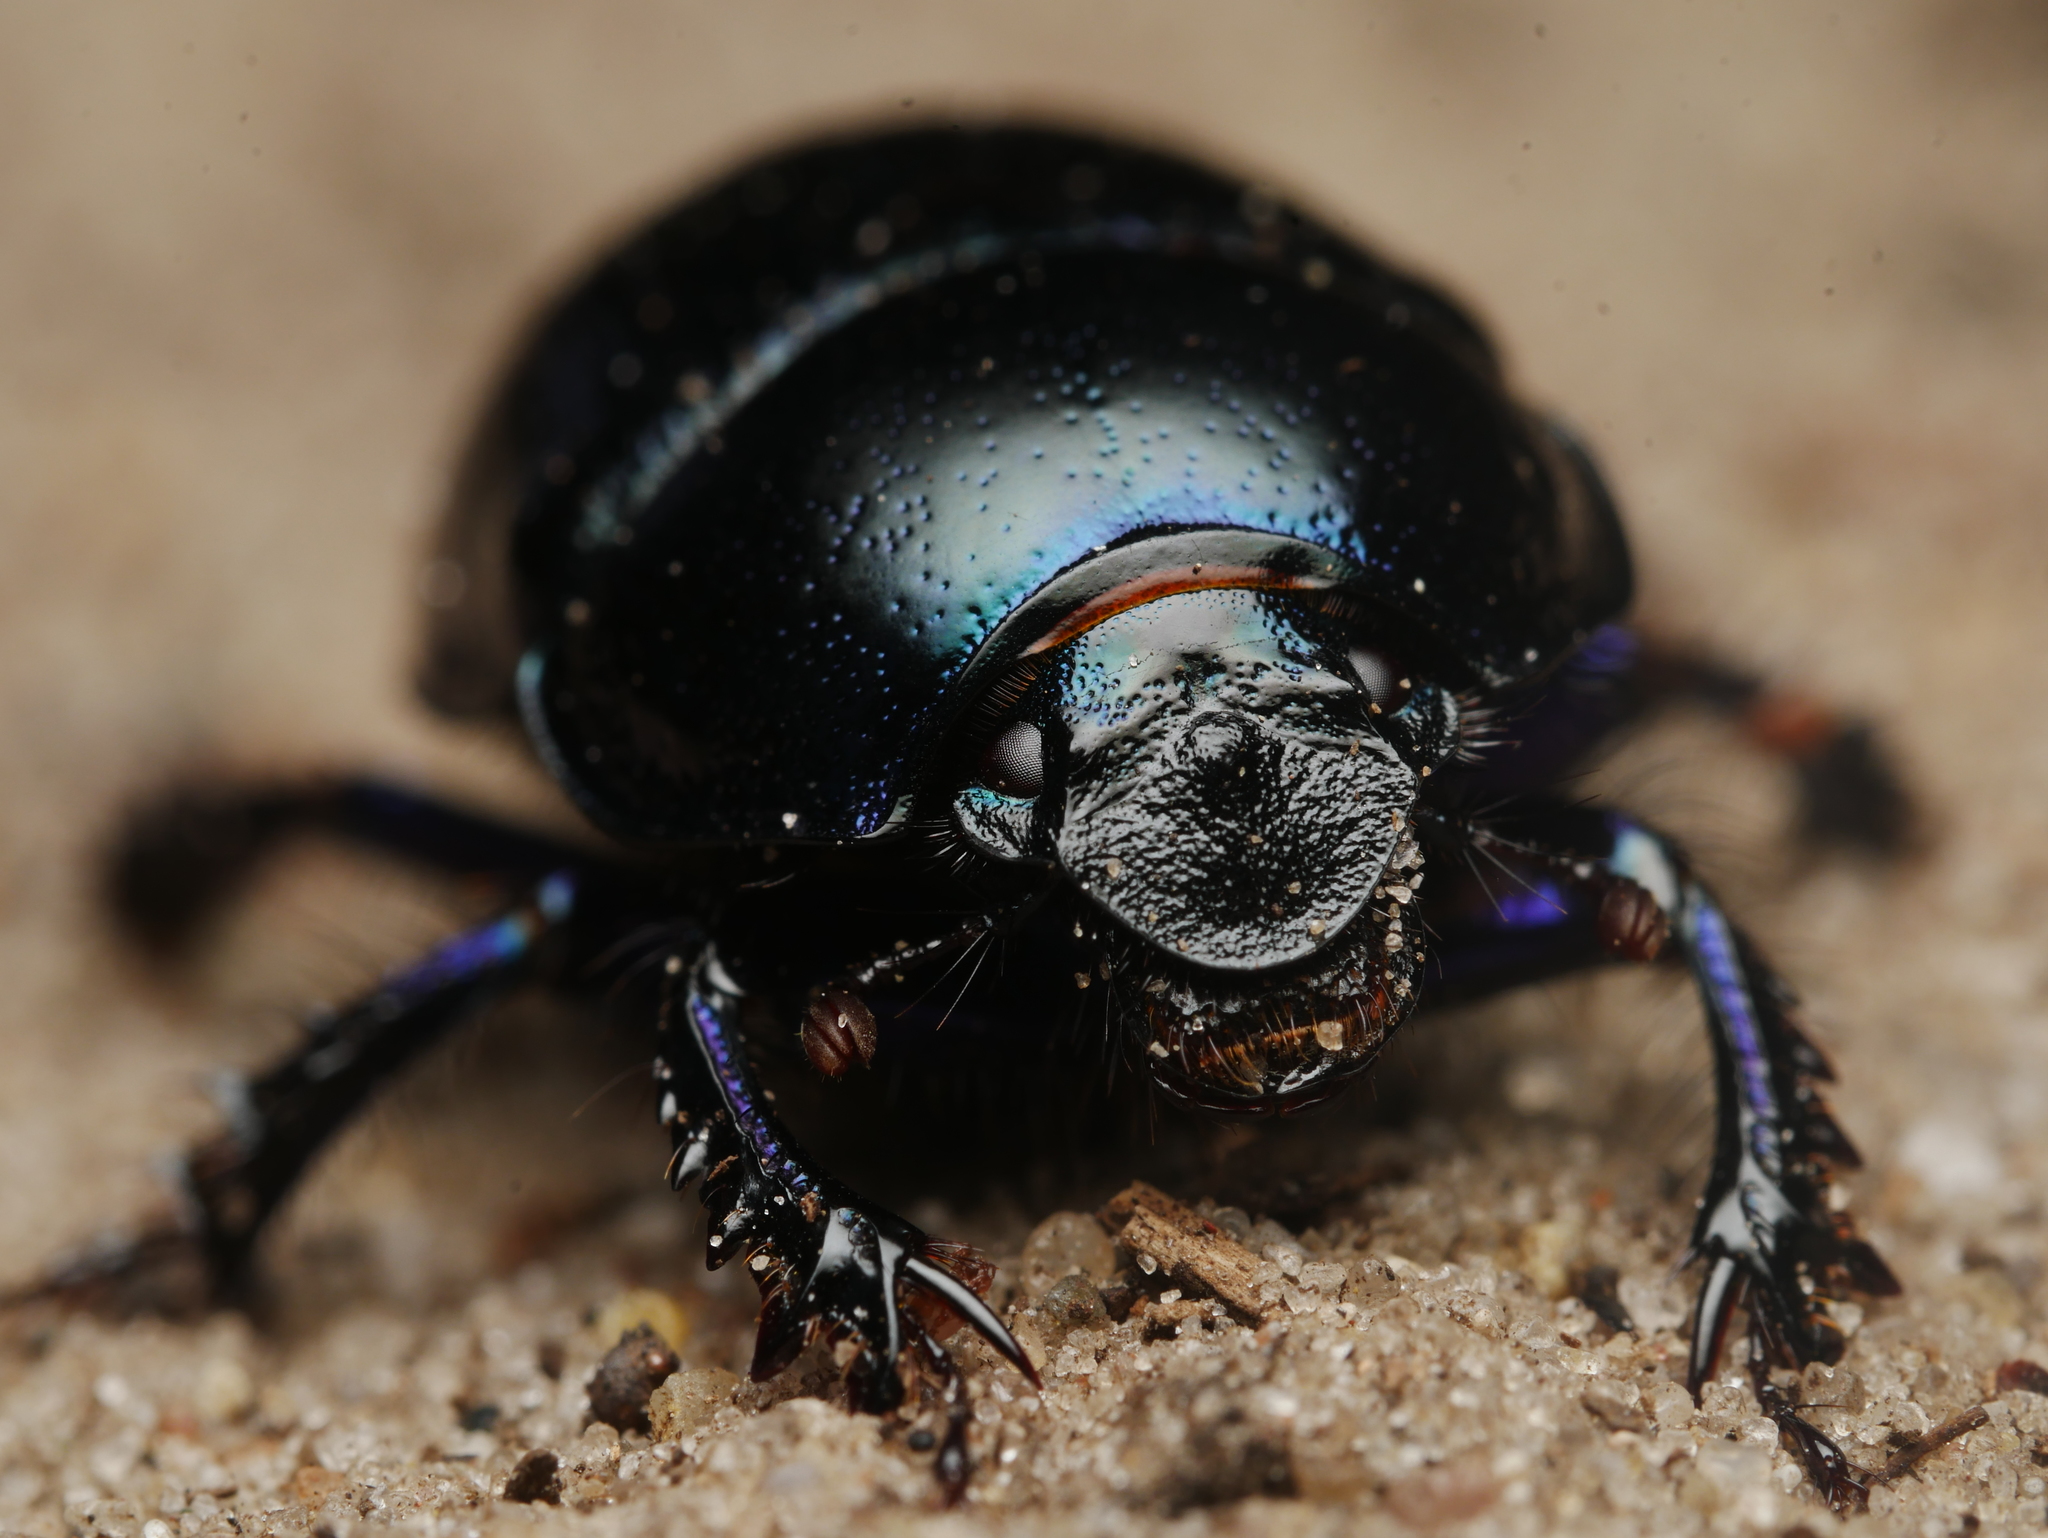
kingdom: Animalia
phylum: Arthropoda
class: Insecta
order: Coleoptera
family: Geotrupidae
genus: Anoplotrupes
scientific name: Anoplotrupes stercorosus
